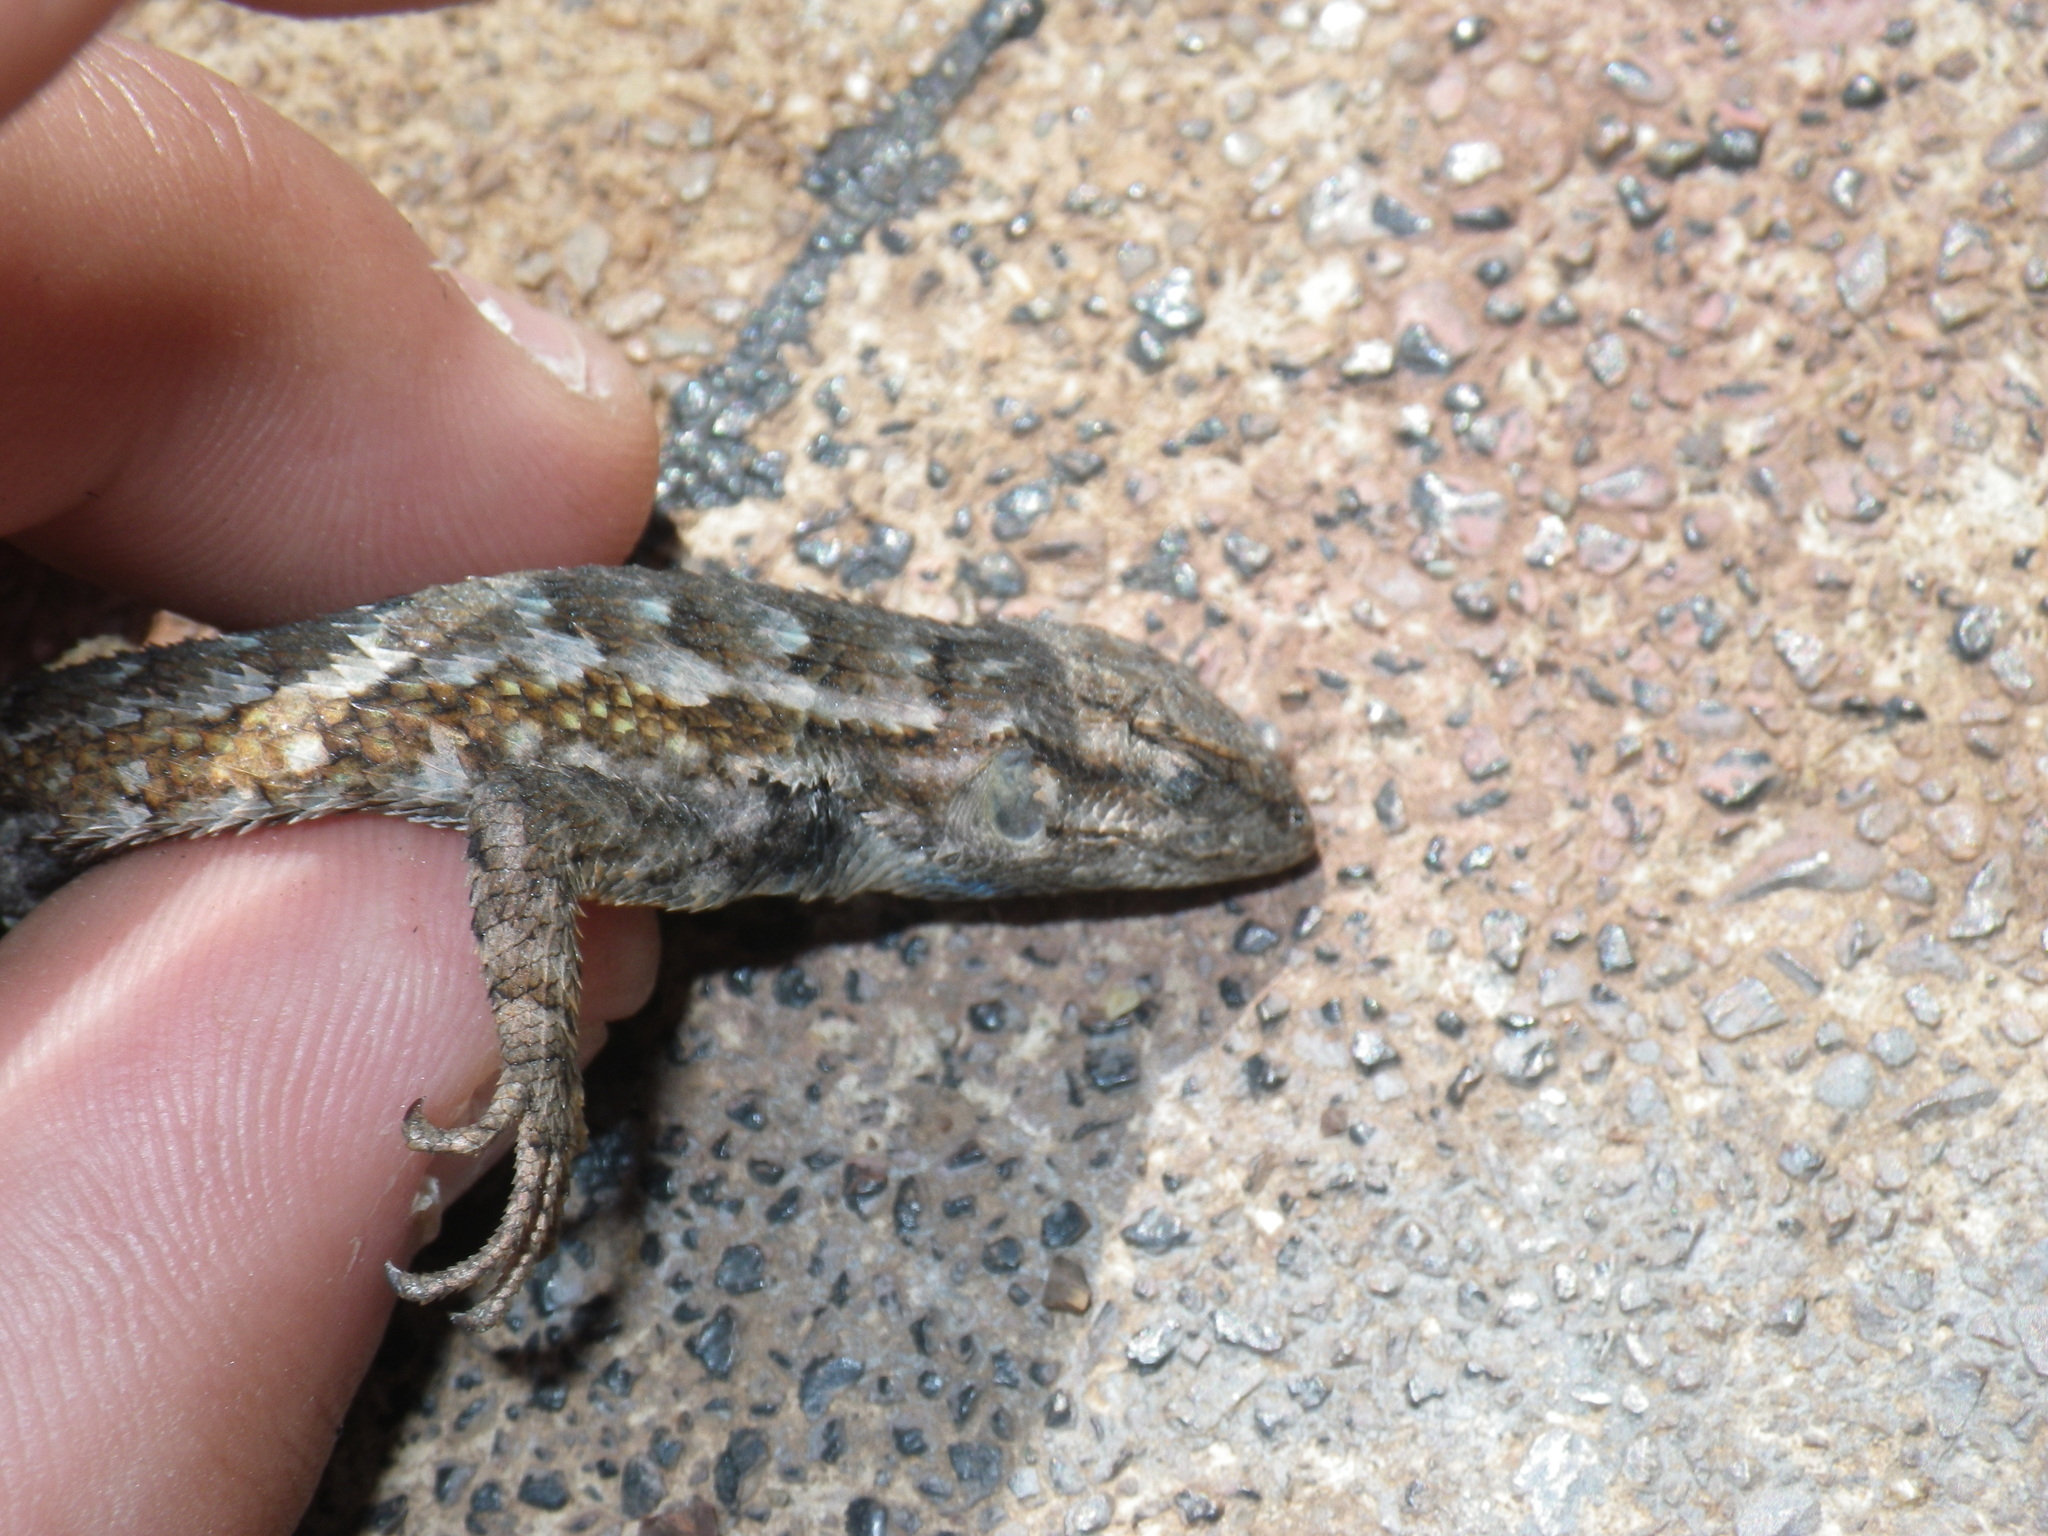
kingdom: Animalia
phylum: Chordata
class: Squamata
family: Phrynosomatidae
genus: Sceloporus
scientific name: Sceloporus occidentalis
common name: Western fence lizard
